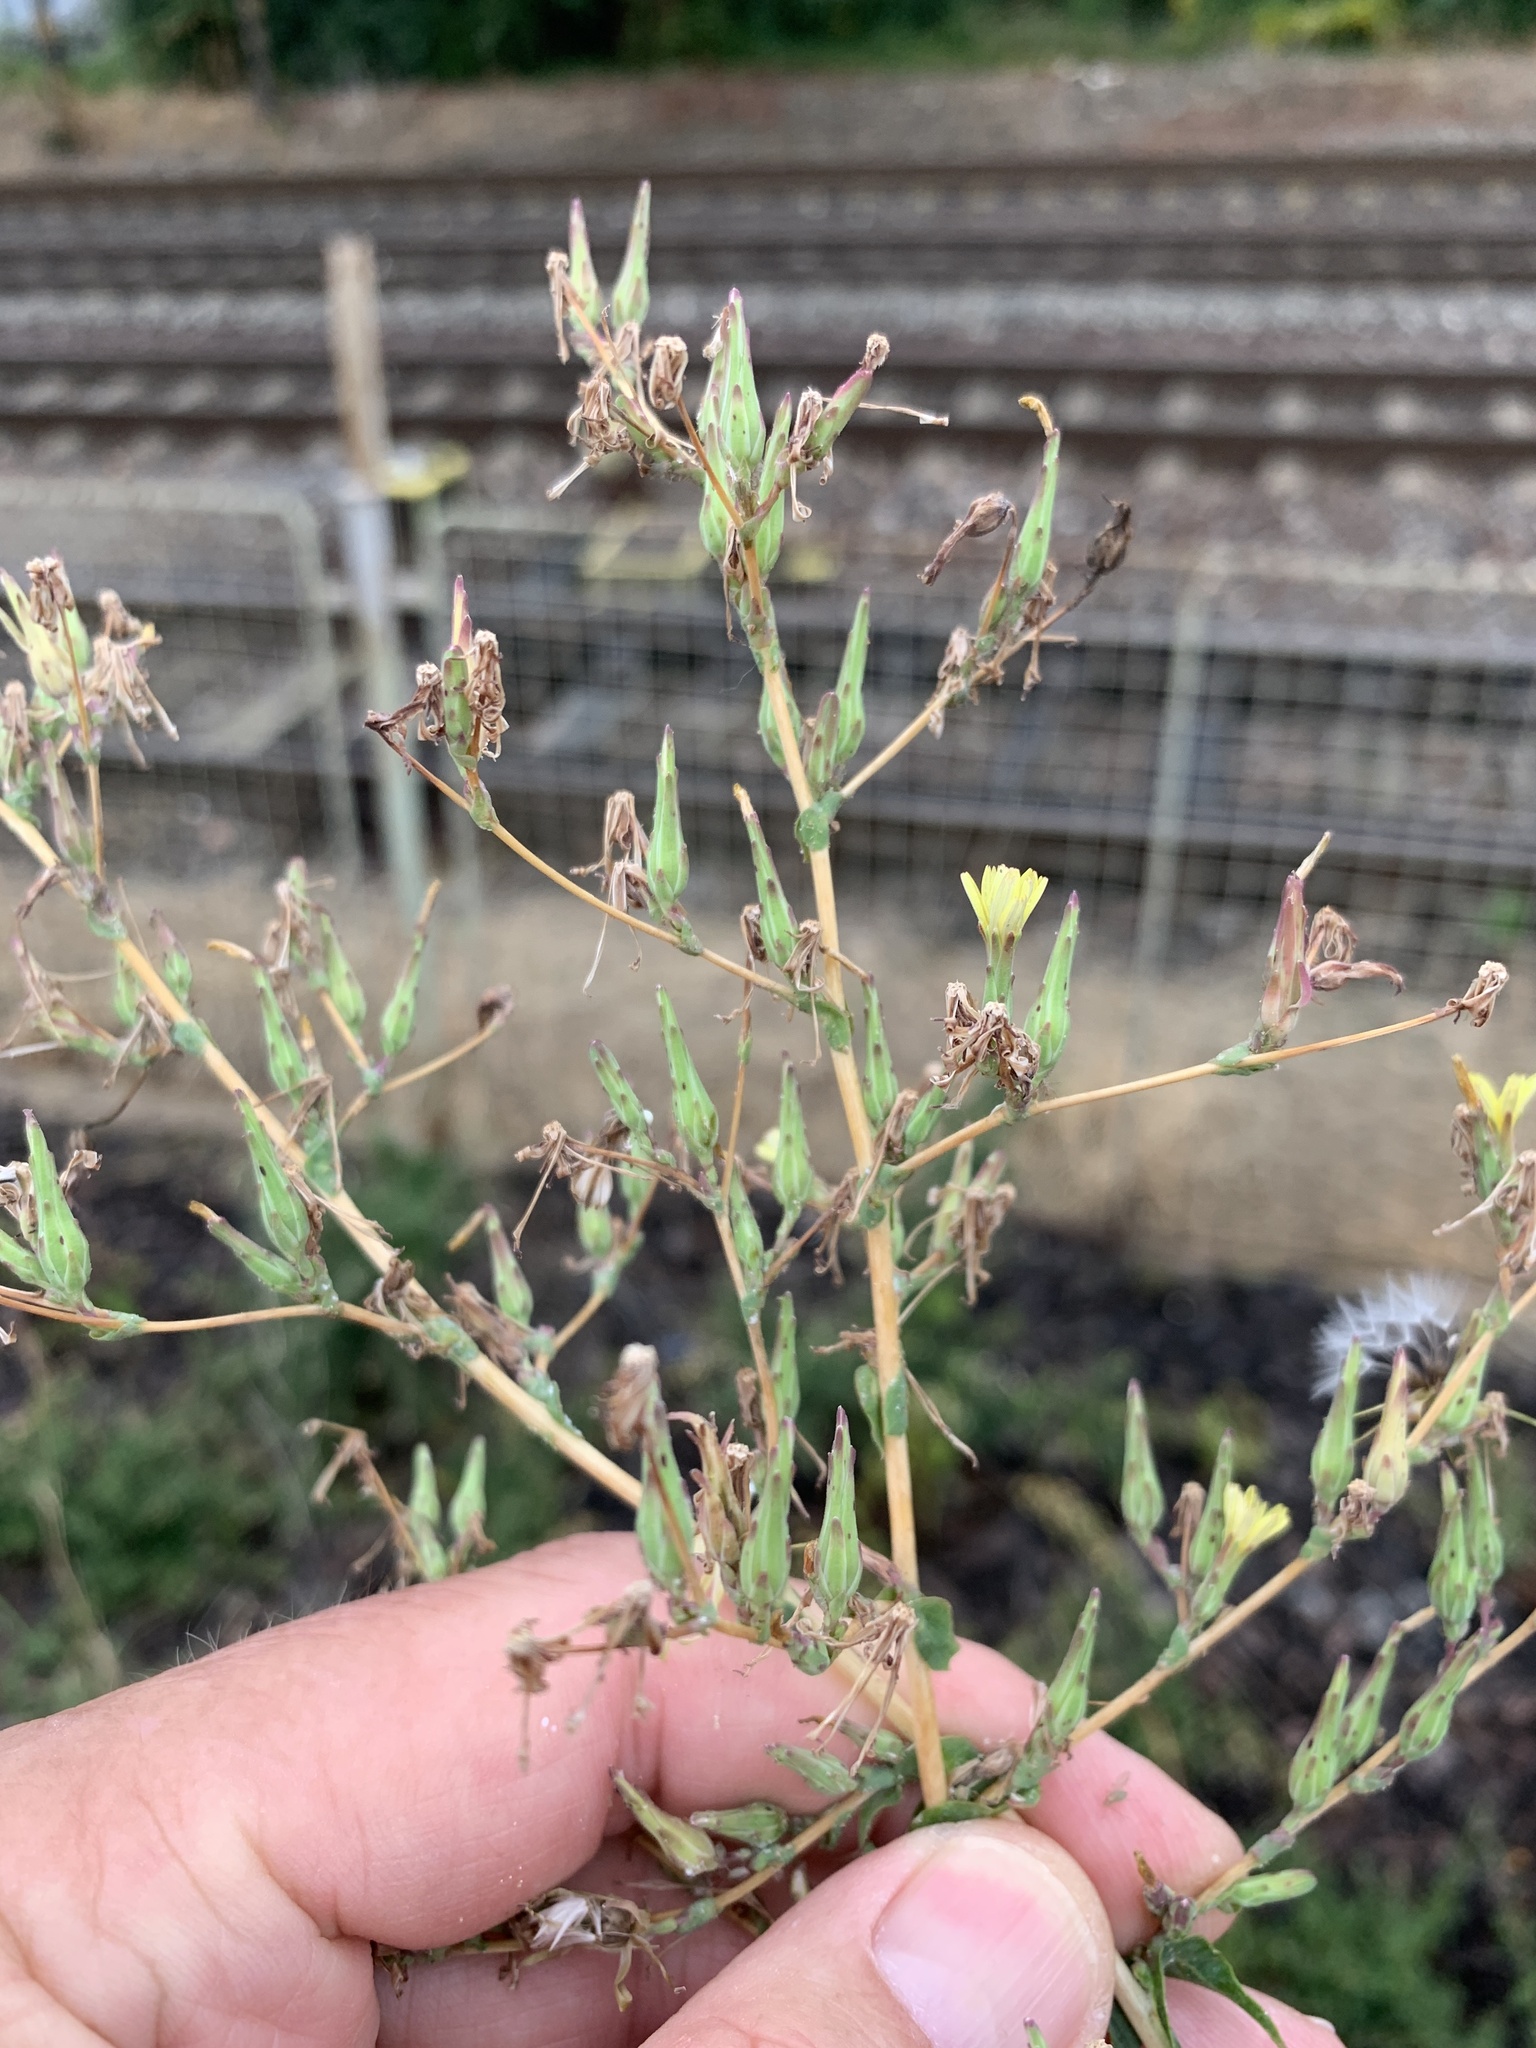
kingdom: Plantae
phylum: Tracheophyta
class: Magnoliopsida
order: Asterales
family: Asteraceae
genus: Lactuca
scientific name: Lactuca serriola
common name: Prickly lettuce
